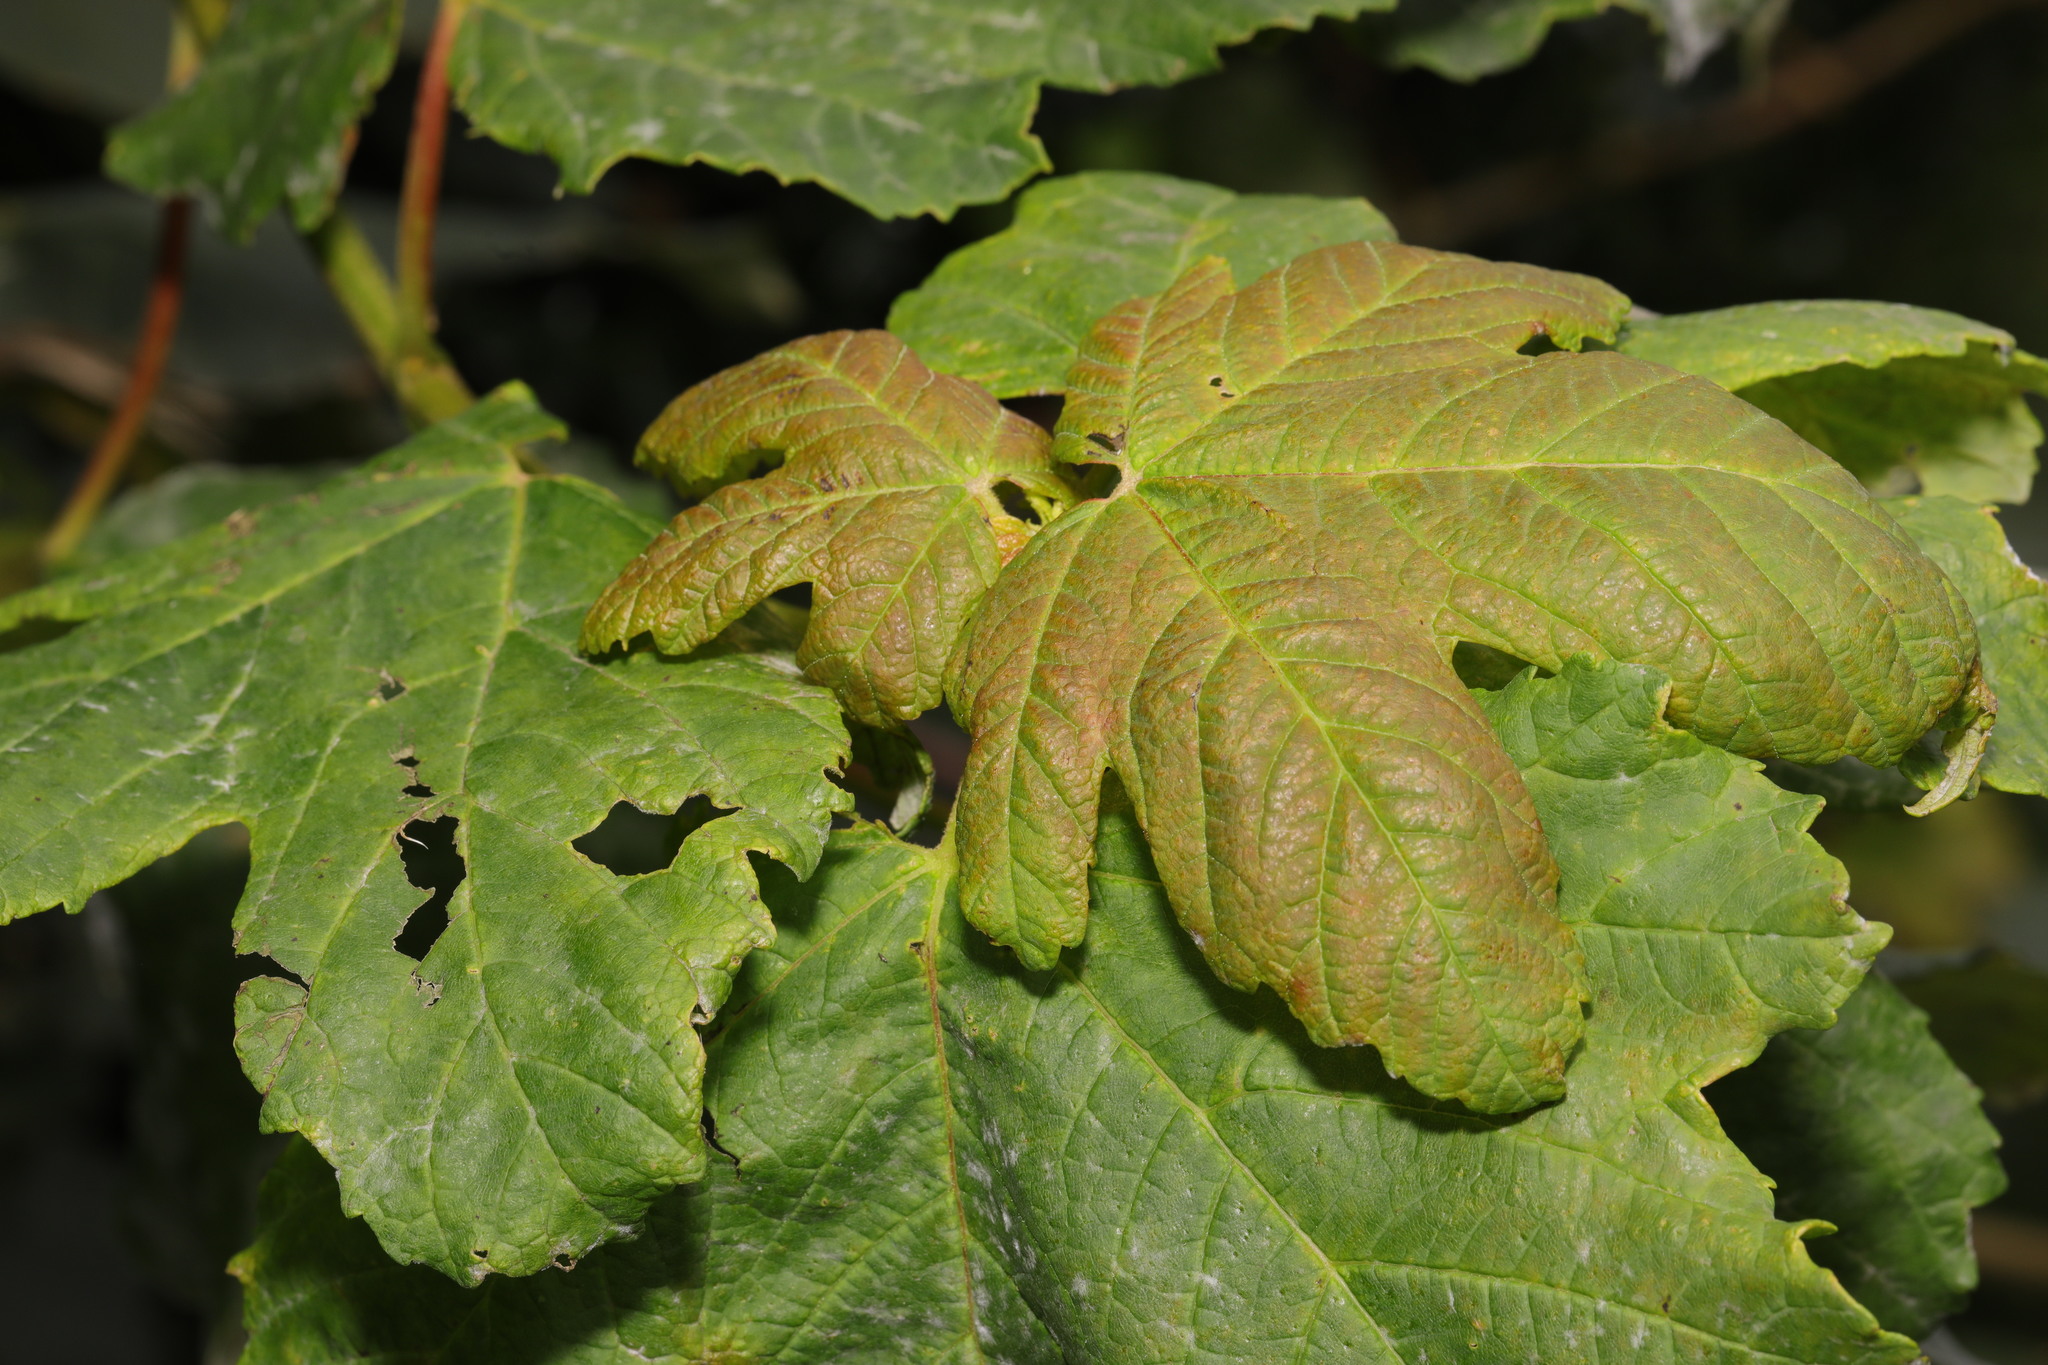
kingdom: Plantae
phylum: Tracheophyta
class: Magnoliopsida
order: Sapindales
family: Sapindaceae
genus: Acer
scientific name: Acer pseudoplatanus
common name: Sycamore
